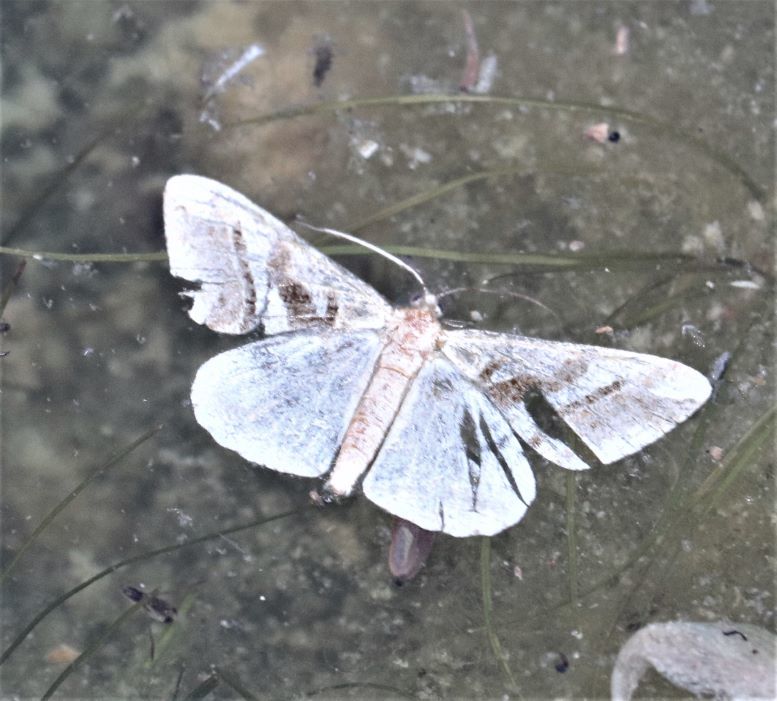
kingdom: Animalia
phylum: Arthropoda
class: Insecta
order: Lepidoptera
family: Geometridae
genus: Isturgia
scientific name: Isturgia deerraria
